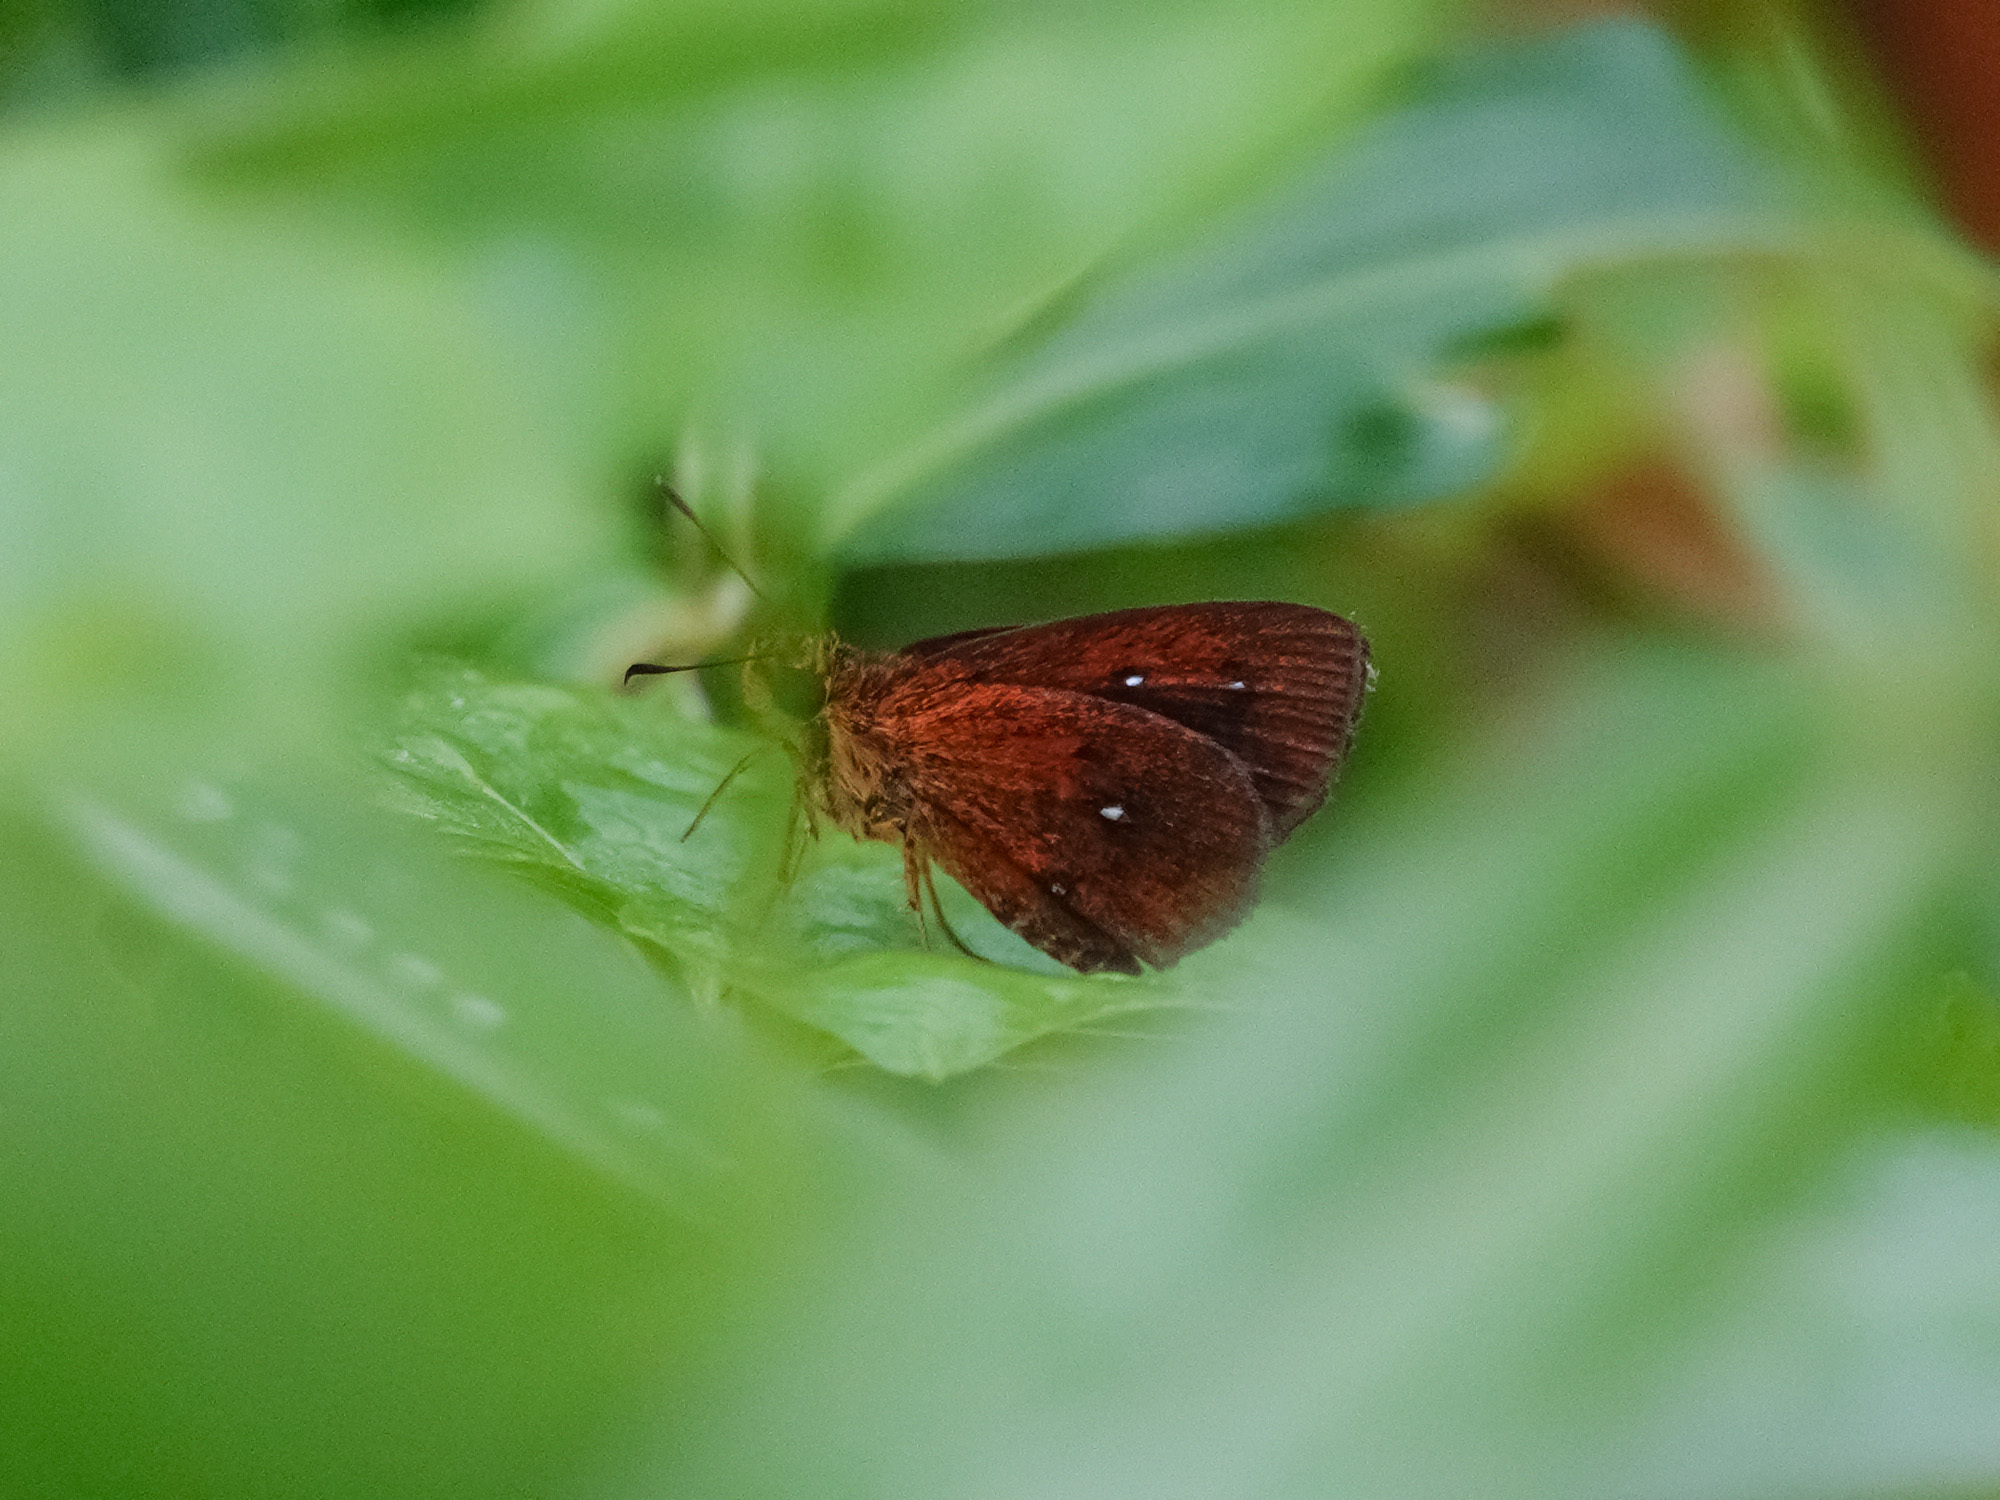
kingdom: Animalia
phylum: Arthropoda
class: Insecta
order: Lepidoptera
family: Hesperiidae
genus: Iambrix
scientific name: Iambrix salsala
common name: Chestnut bob
